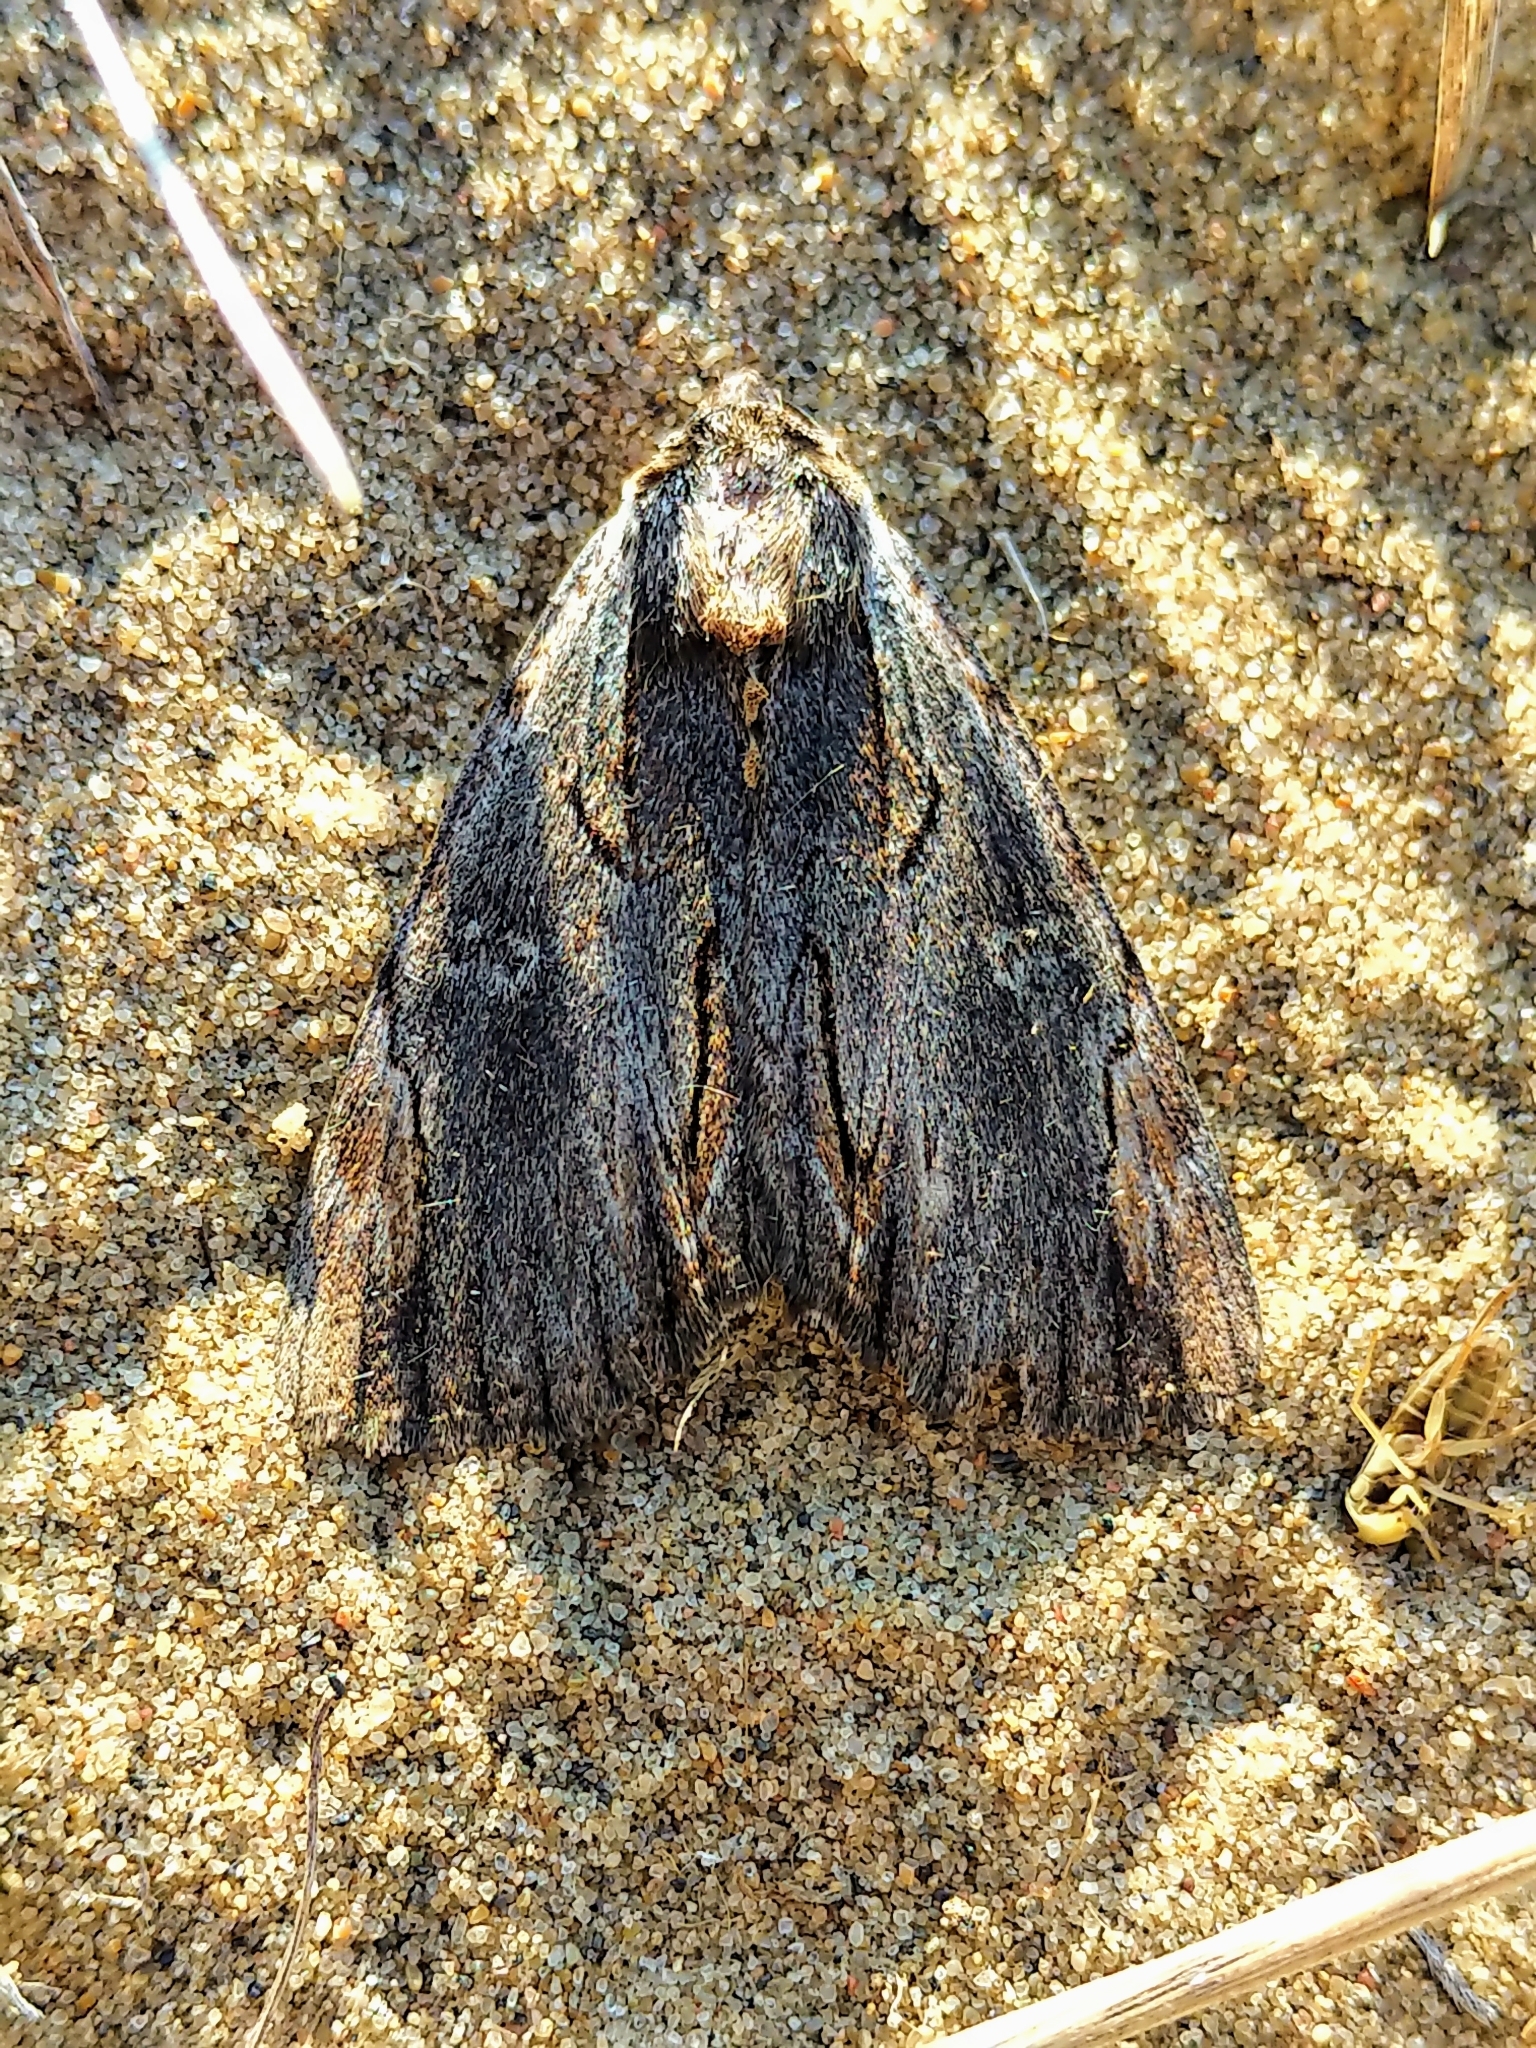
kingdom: Animalia
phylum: Arthropoda
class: Insecta
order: Lepidoptera
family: Erebidae
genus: Catocala
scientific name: Catocala ultronia
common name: Ultronia underwing
